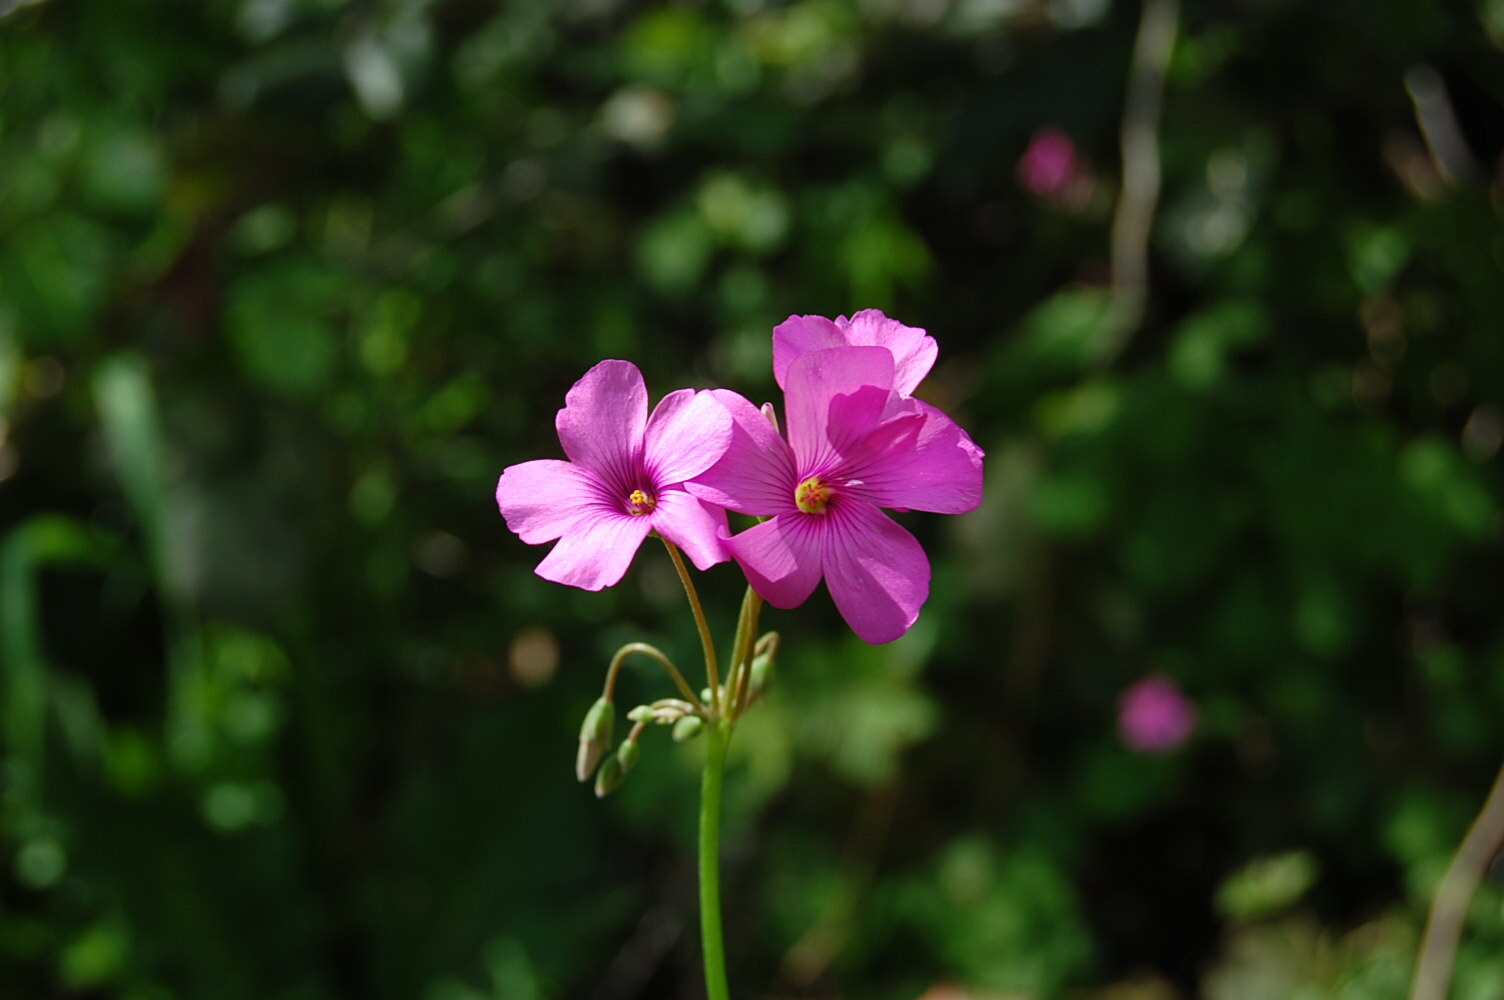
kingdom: Plantae
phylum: Tracheophyta
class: Magnoliopsida
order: Oxalidales
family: Oxalidaceae
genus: Oxalis
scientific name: Oxalis articulata
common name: Pink-sorrel
